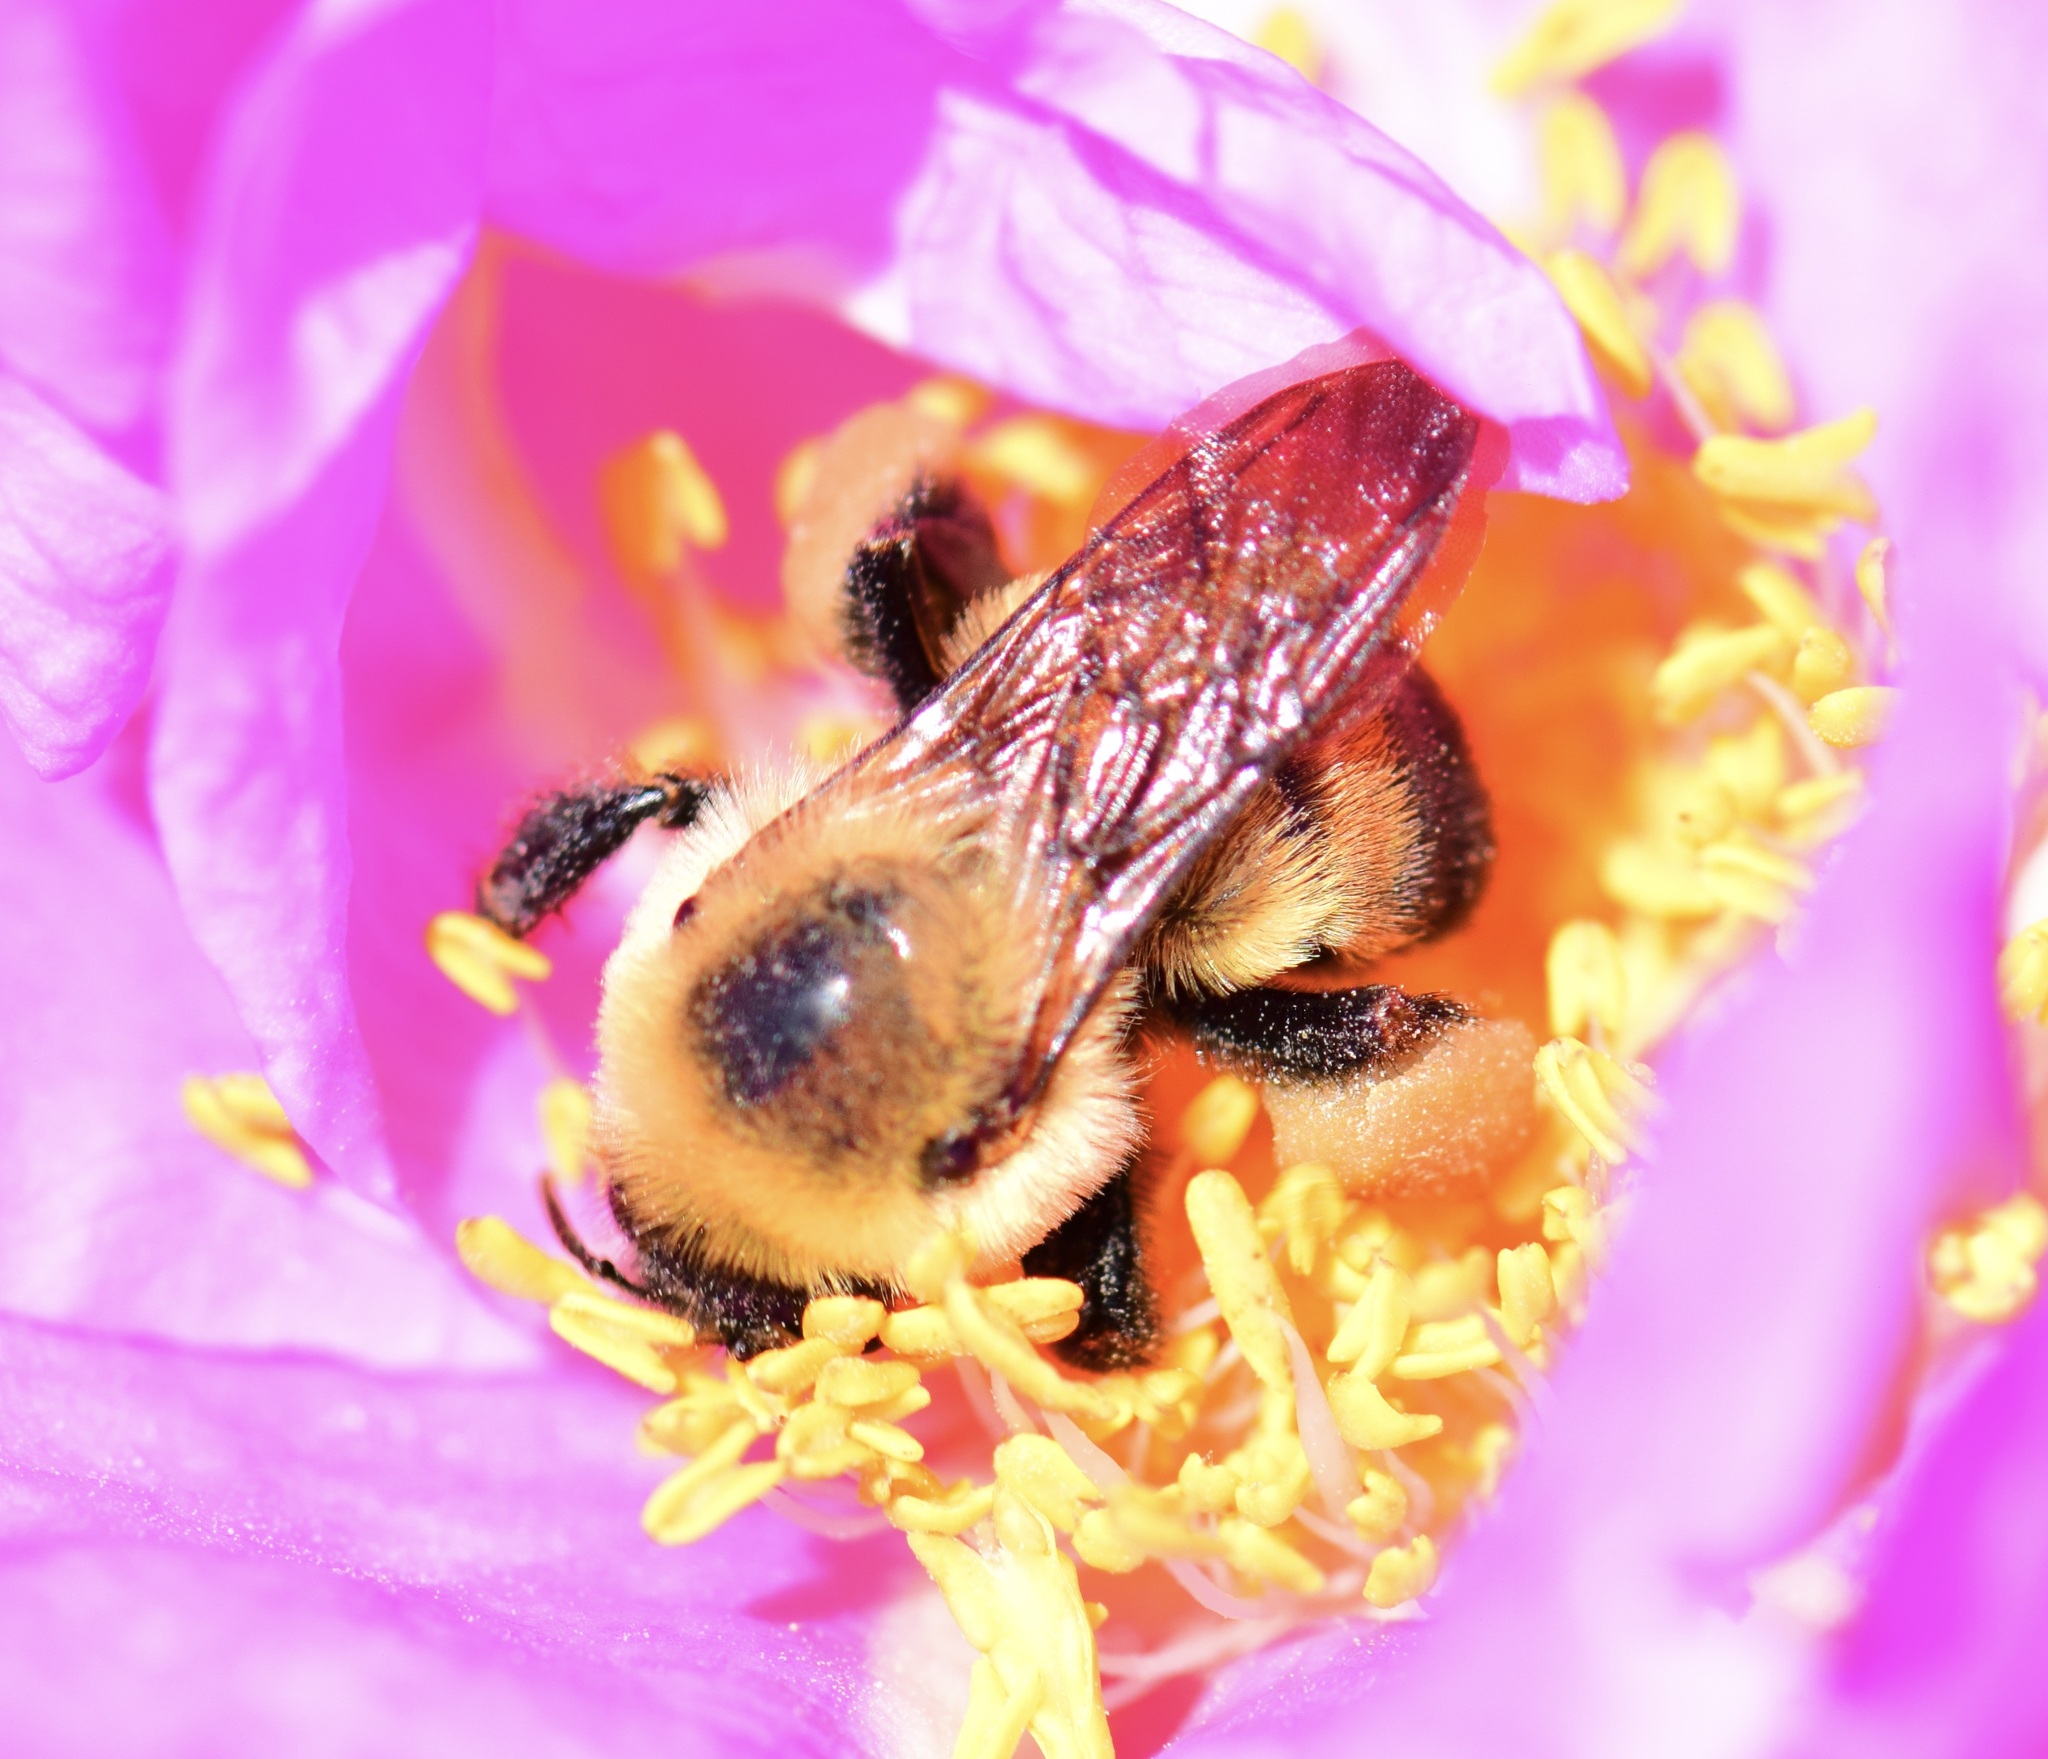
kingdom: Animalia
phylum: Arthropoda
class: Insecta
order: Hymenoptera
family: Apidae
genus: Bombus
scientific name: Bombus griseocollis
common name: Brown-belted bumble bee
